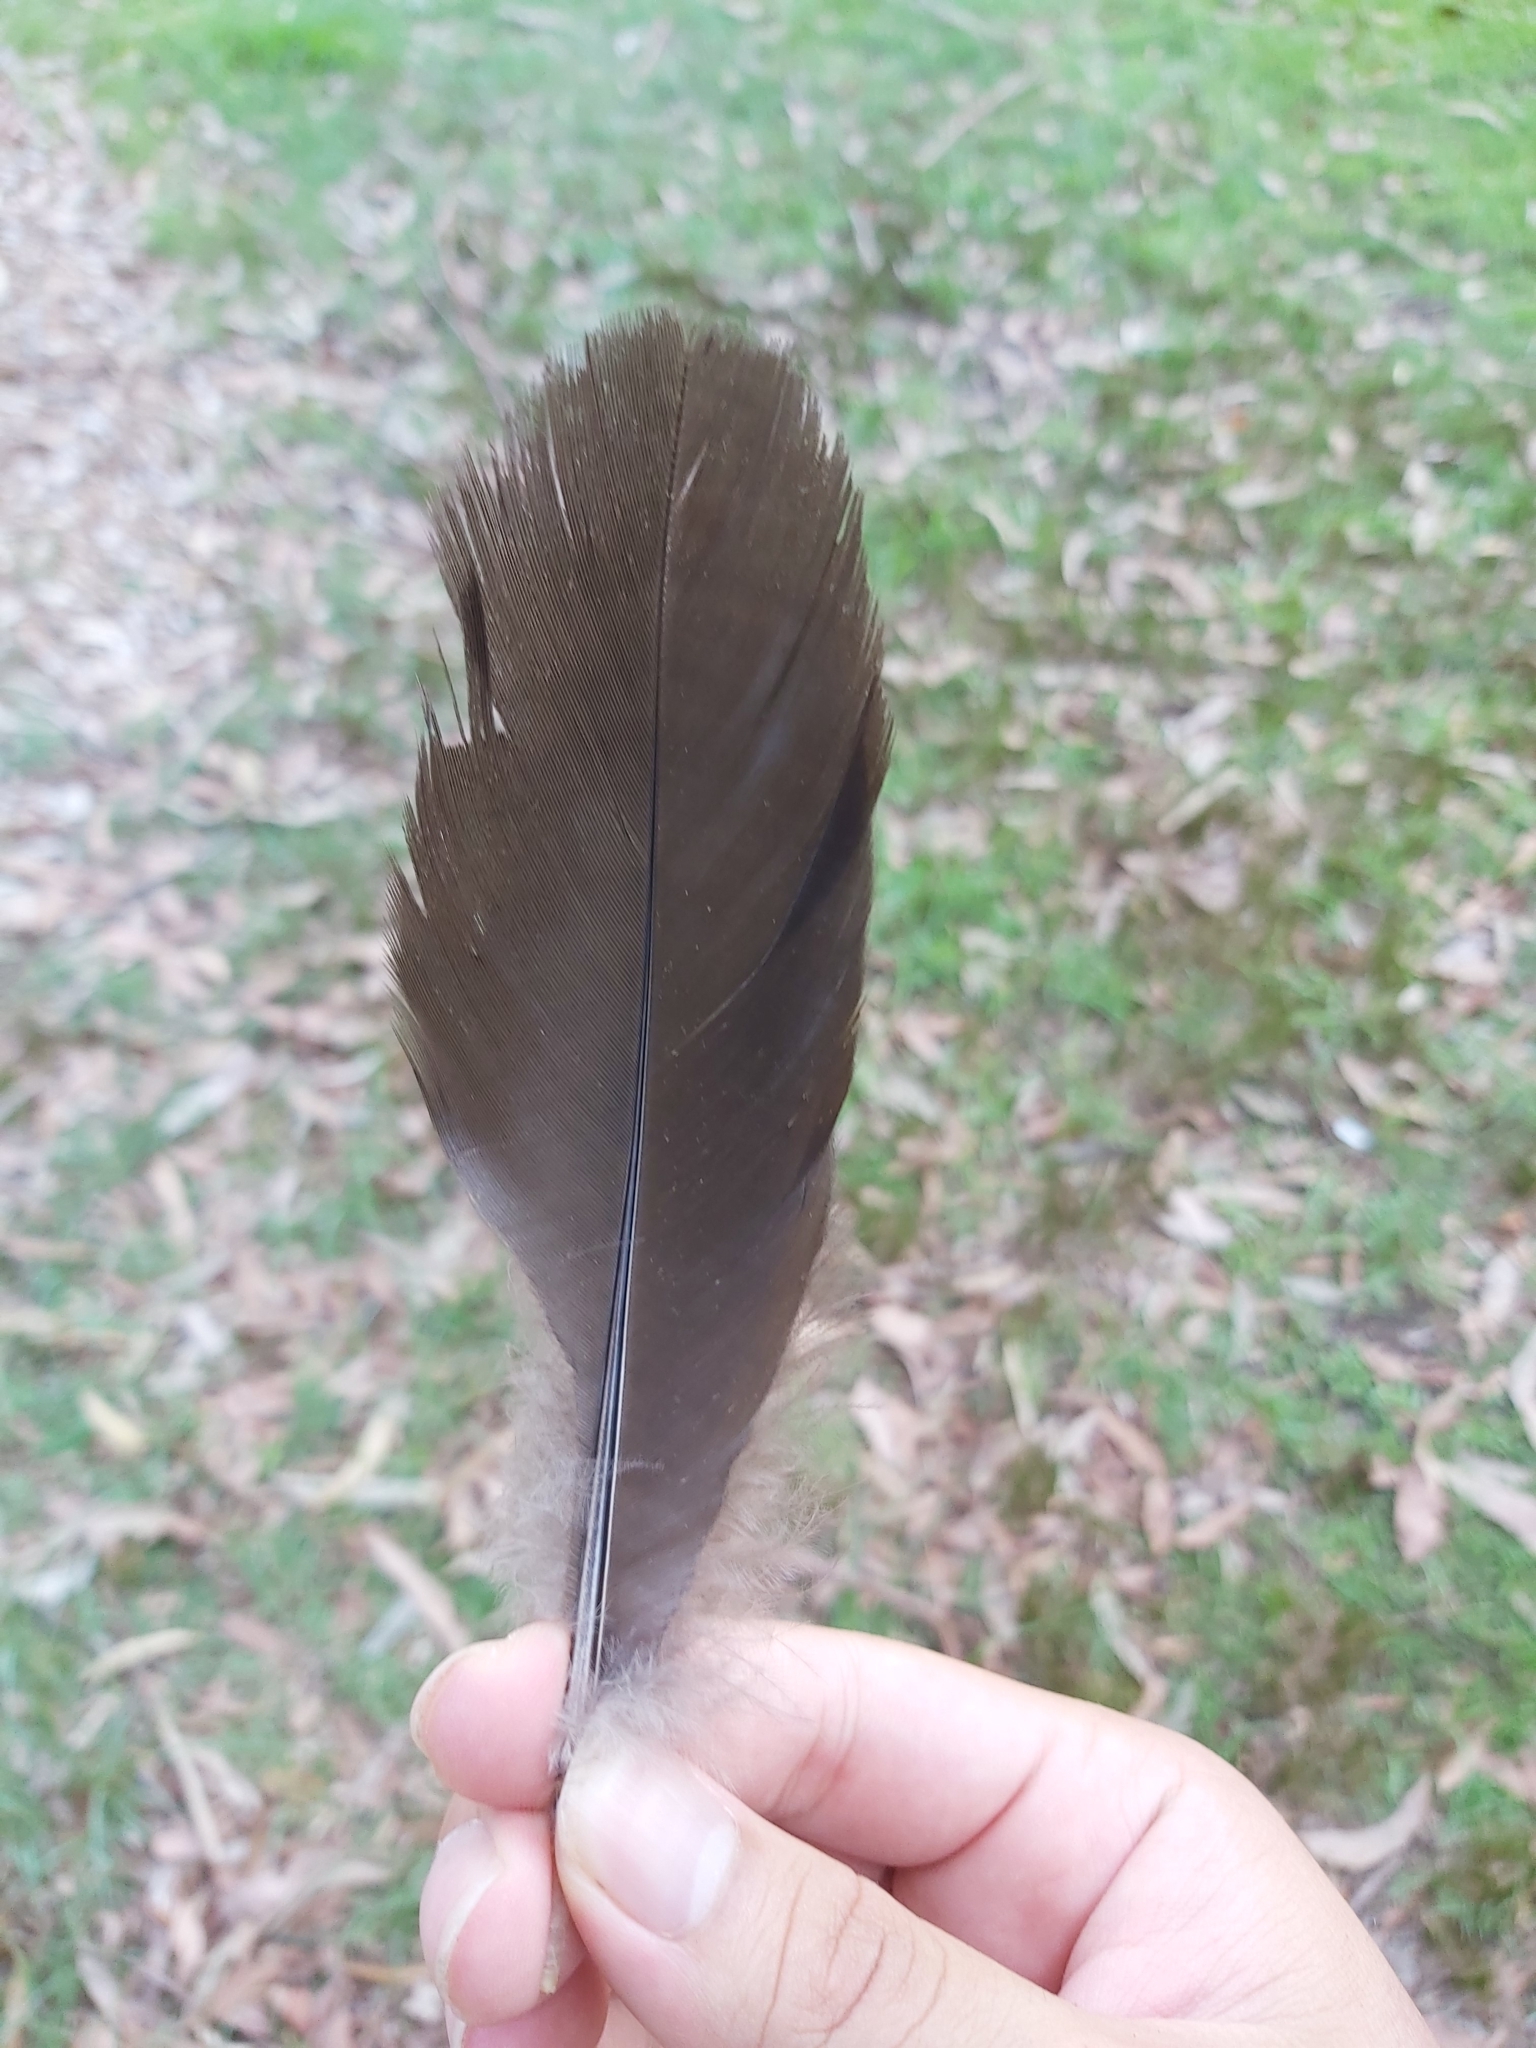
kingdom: Animalia
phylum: Chordata
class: Aves
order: Galliformes
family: Megapodiidae
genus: Alectura
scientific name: Alectura lathami
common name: Australian brushturkey
